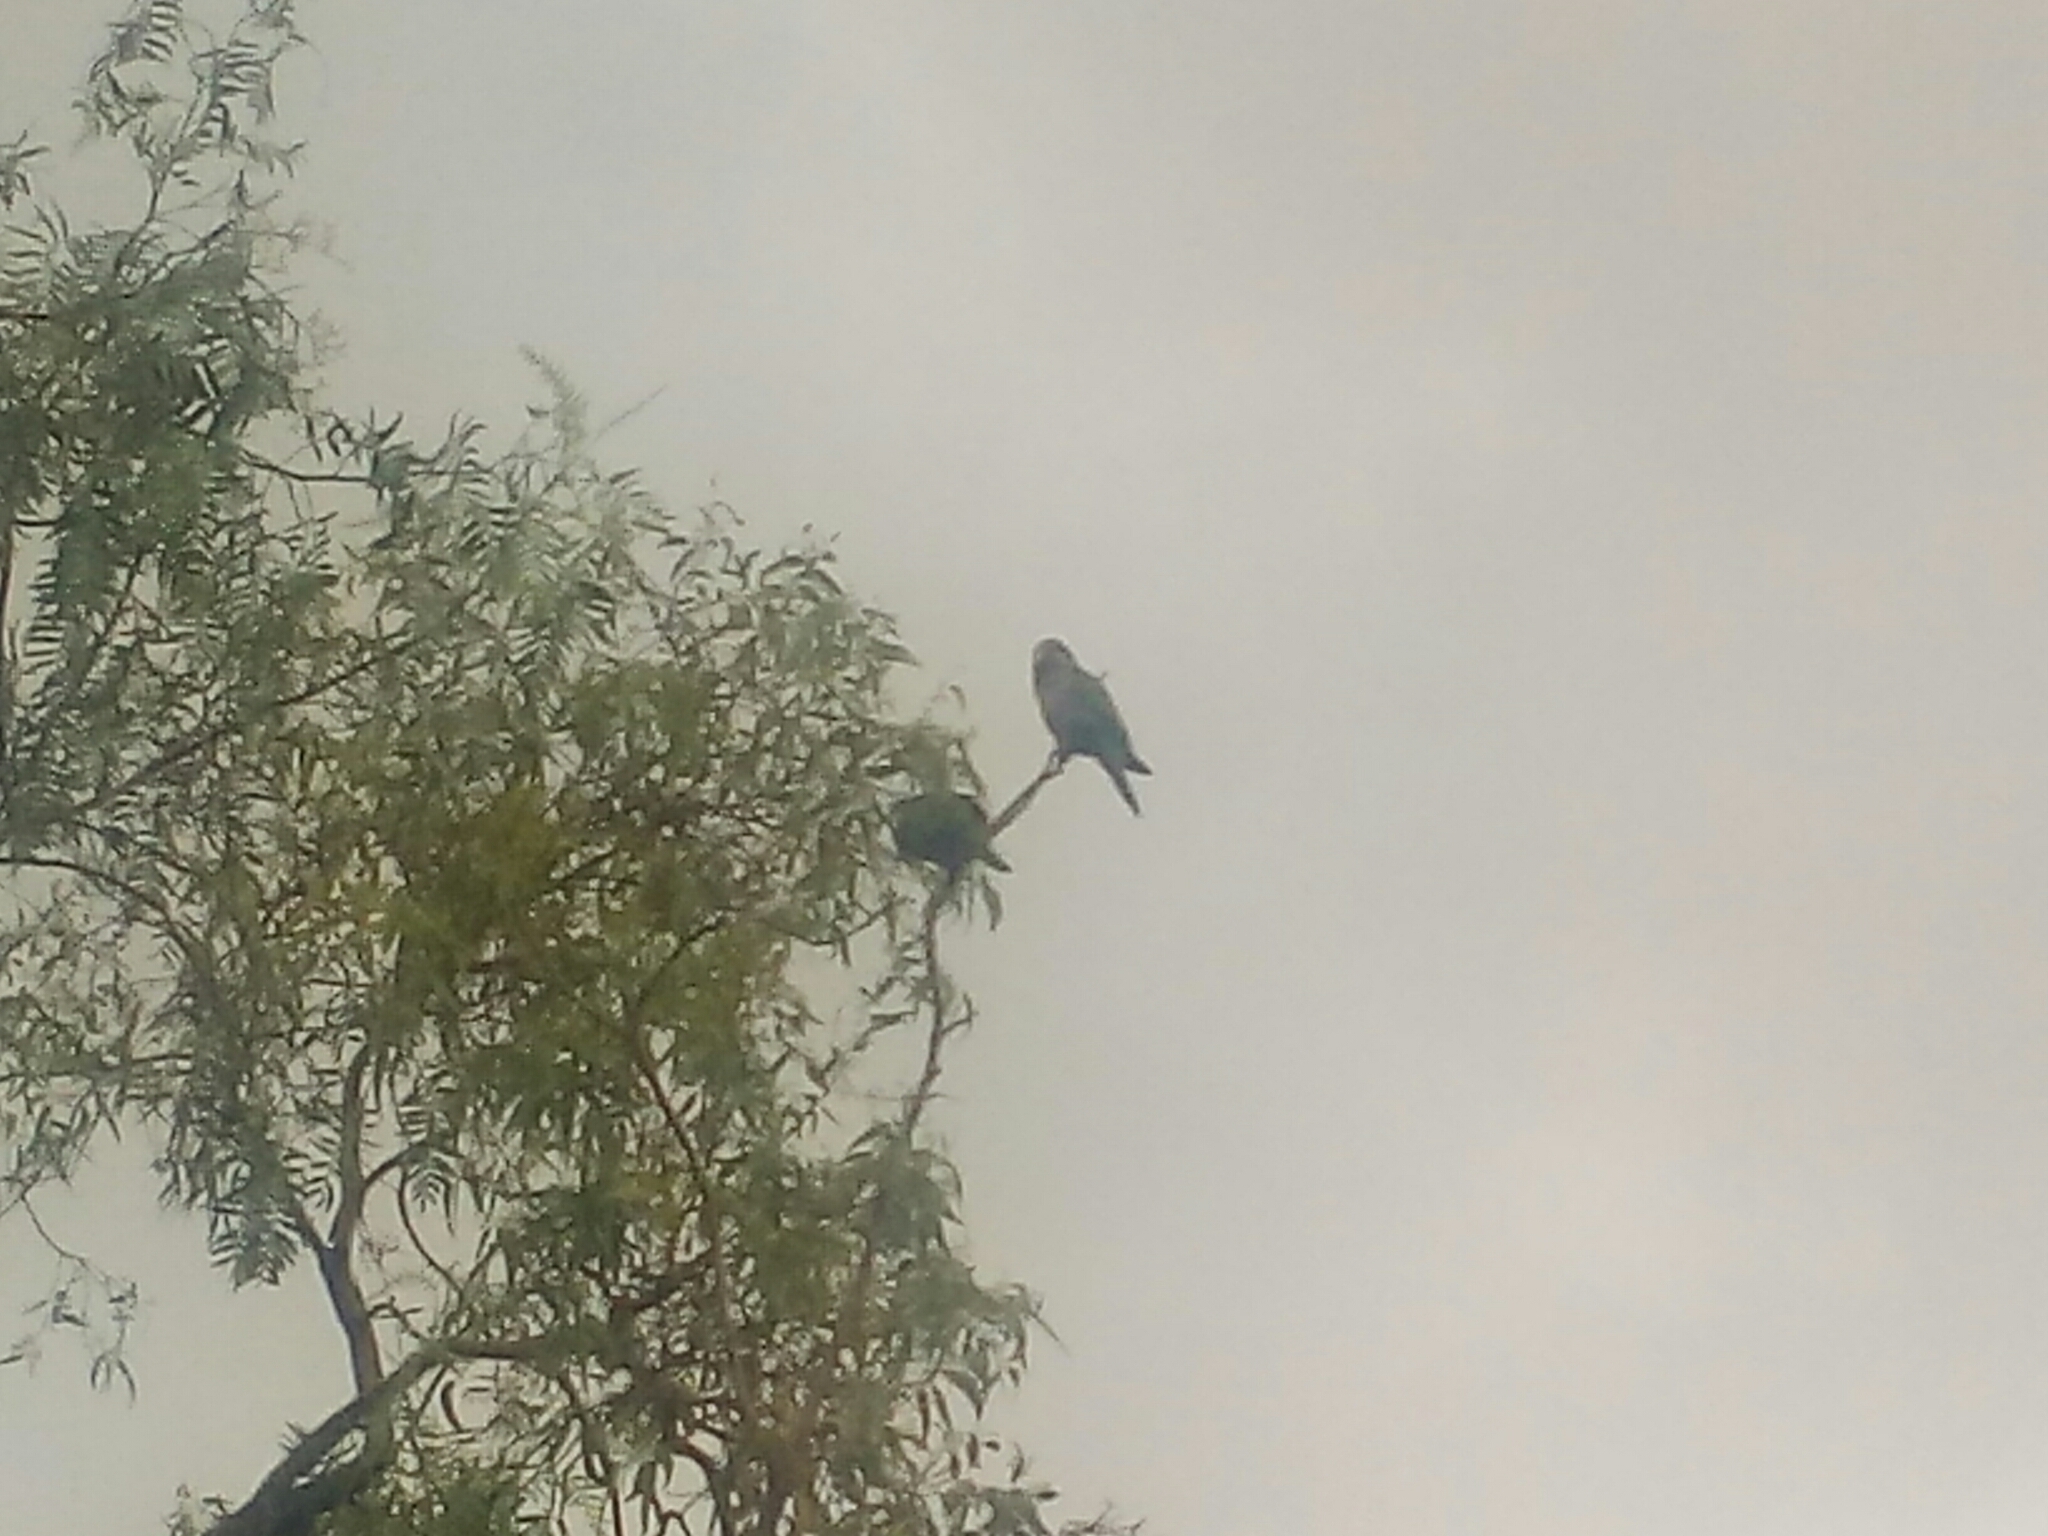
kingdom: Animalia
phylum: Chordata
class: Aves
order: Psittaciformes
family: Psittacidae
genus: Myiopsitta
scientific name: Myiopsitta monachus
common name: Monk parakeet
